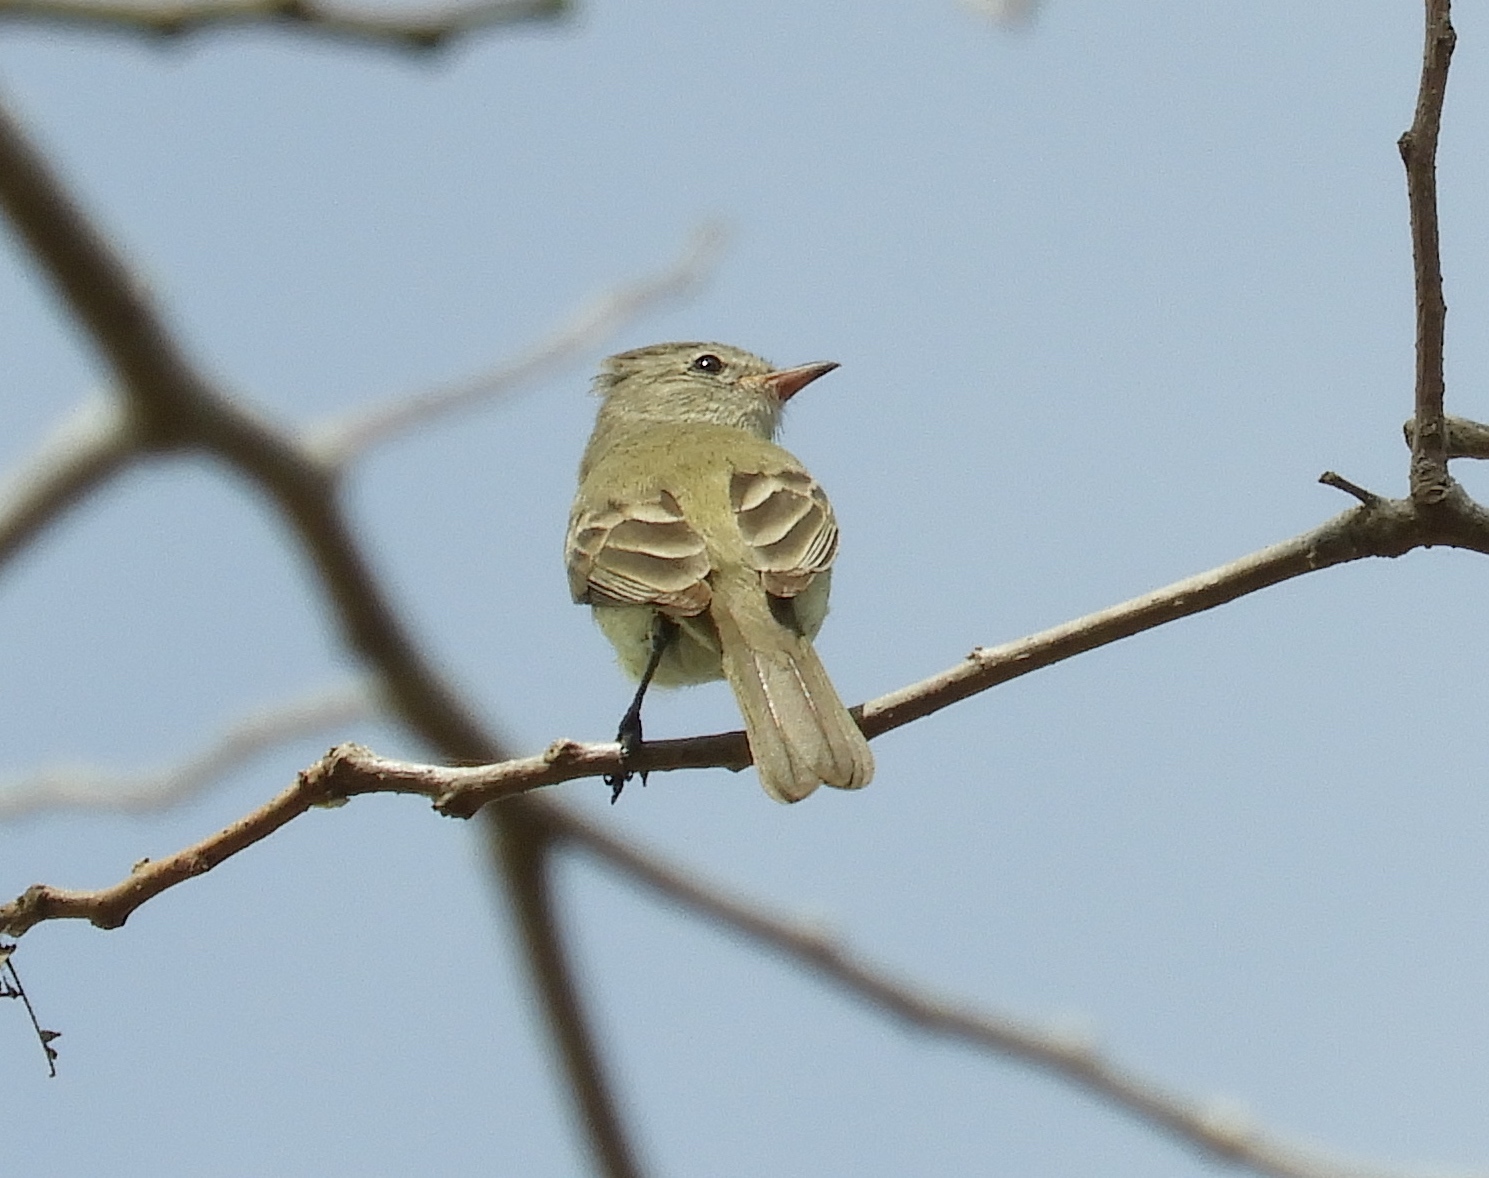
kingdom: Animalia
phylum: Chordata
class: Aves
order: Passeriformes
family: Tyrannidae
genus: Camptostoma
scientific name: Camptostoma imberbe
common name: Northern beardless-tyrannulet
